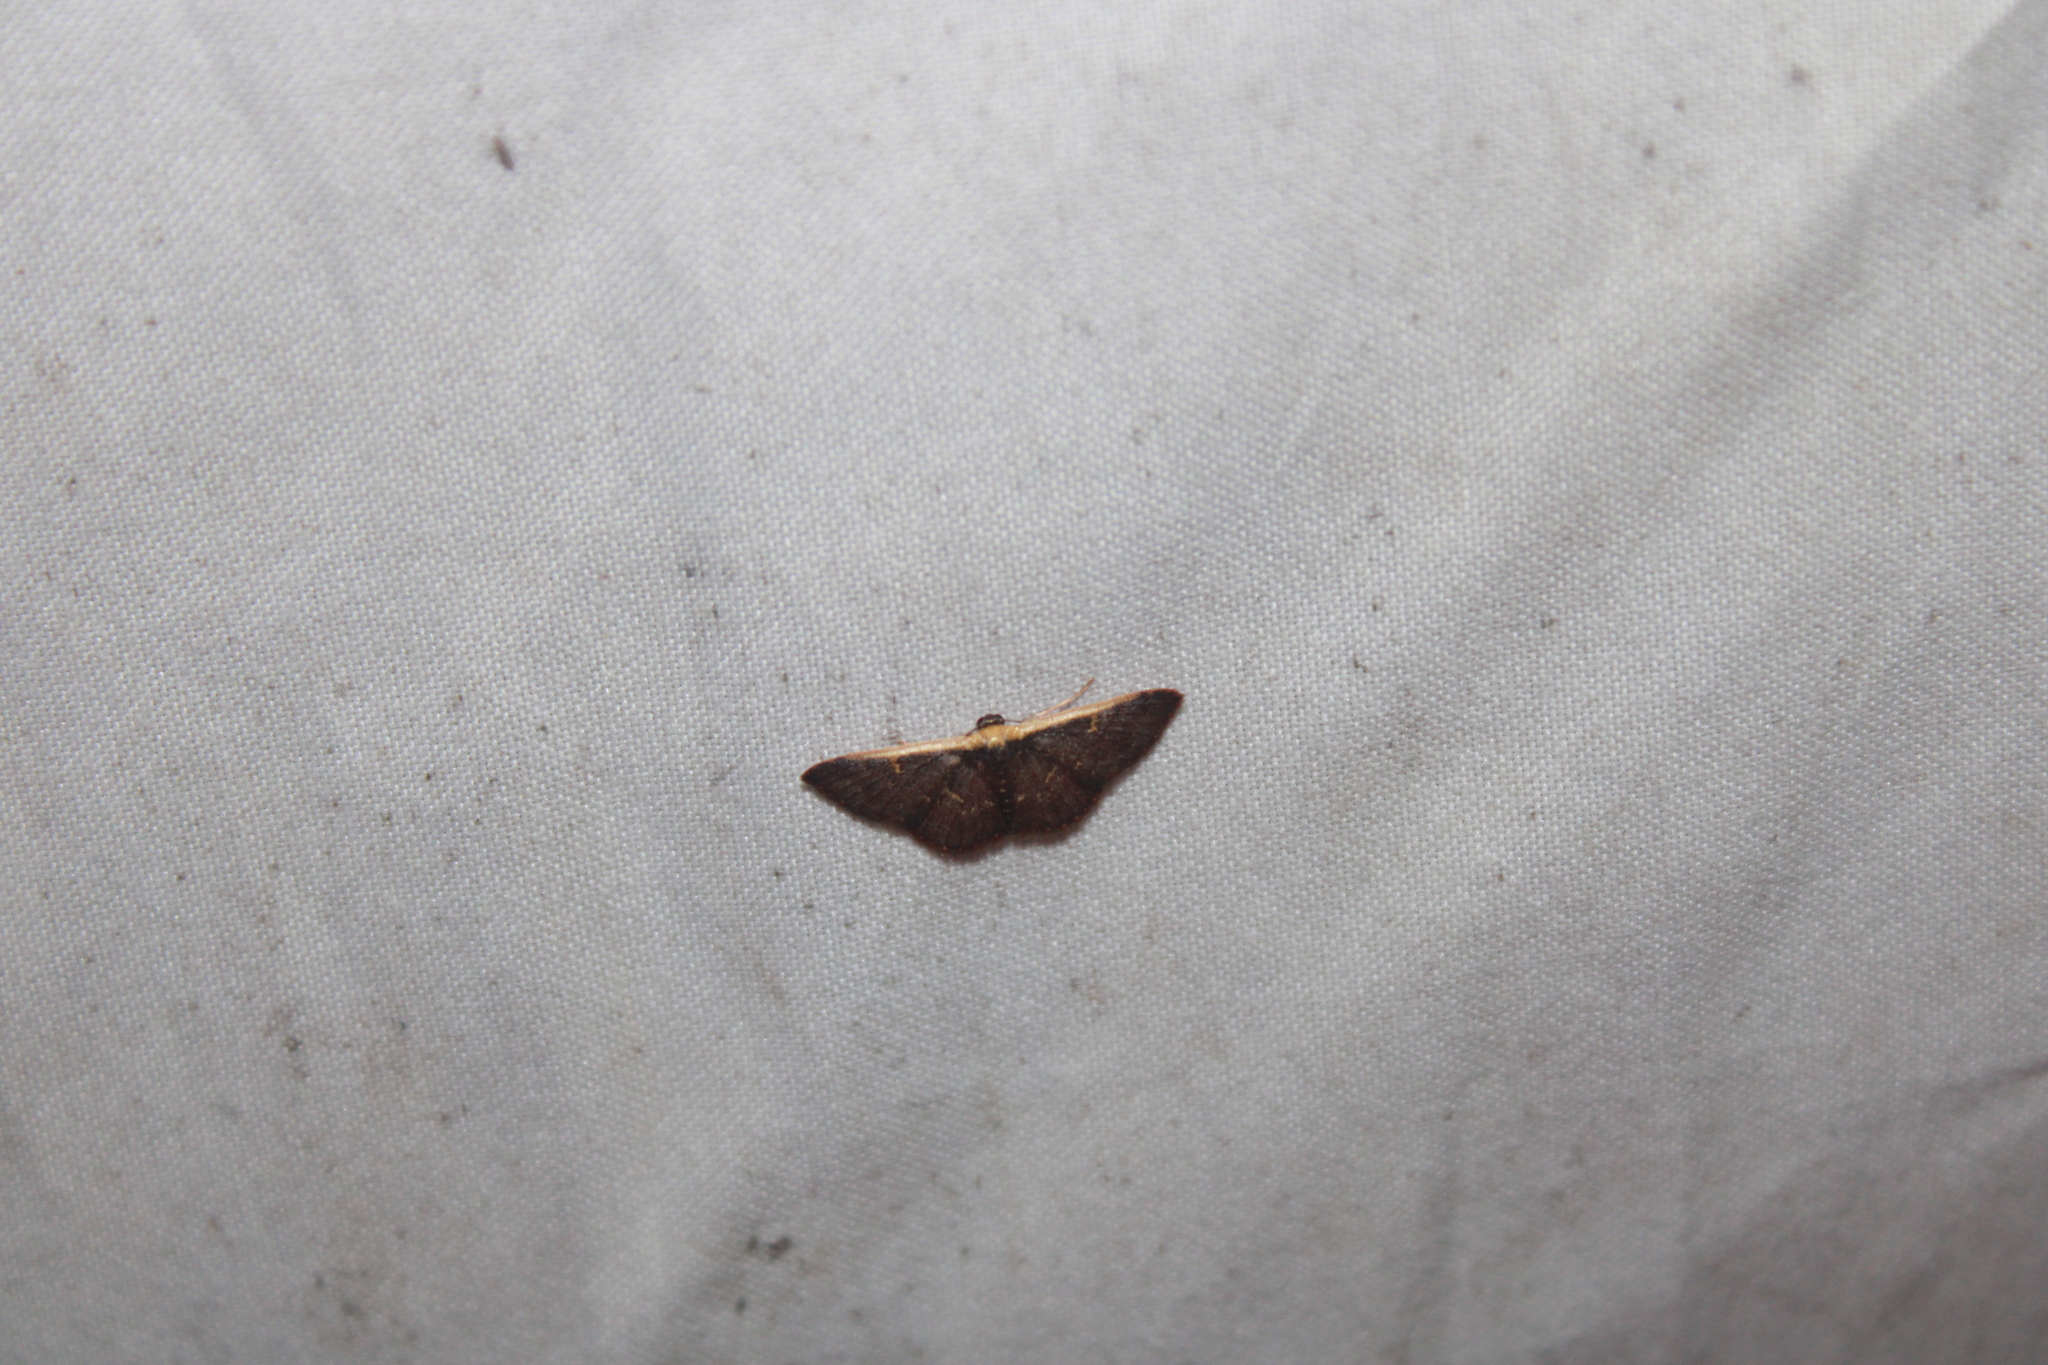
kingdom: Animalia
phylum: Arthropoda
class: Insecta
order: Lepidoptera
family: Geometridae
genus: Leptostales
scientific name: Leptostales crossii
